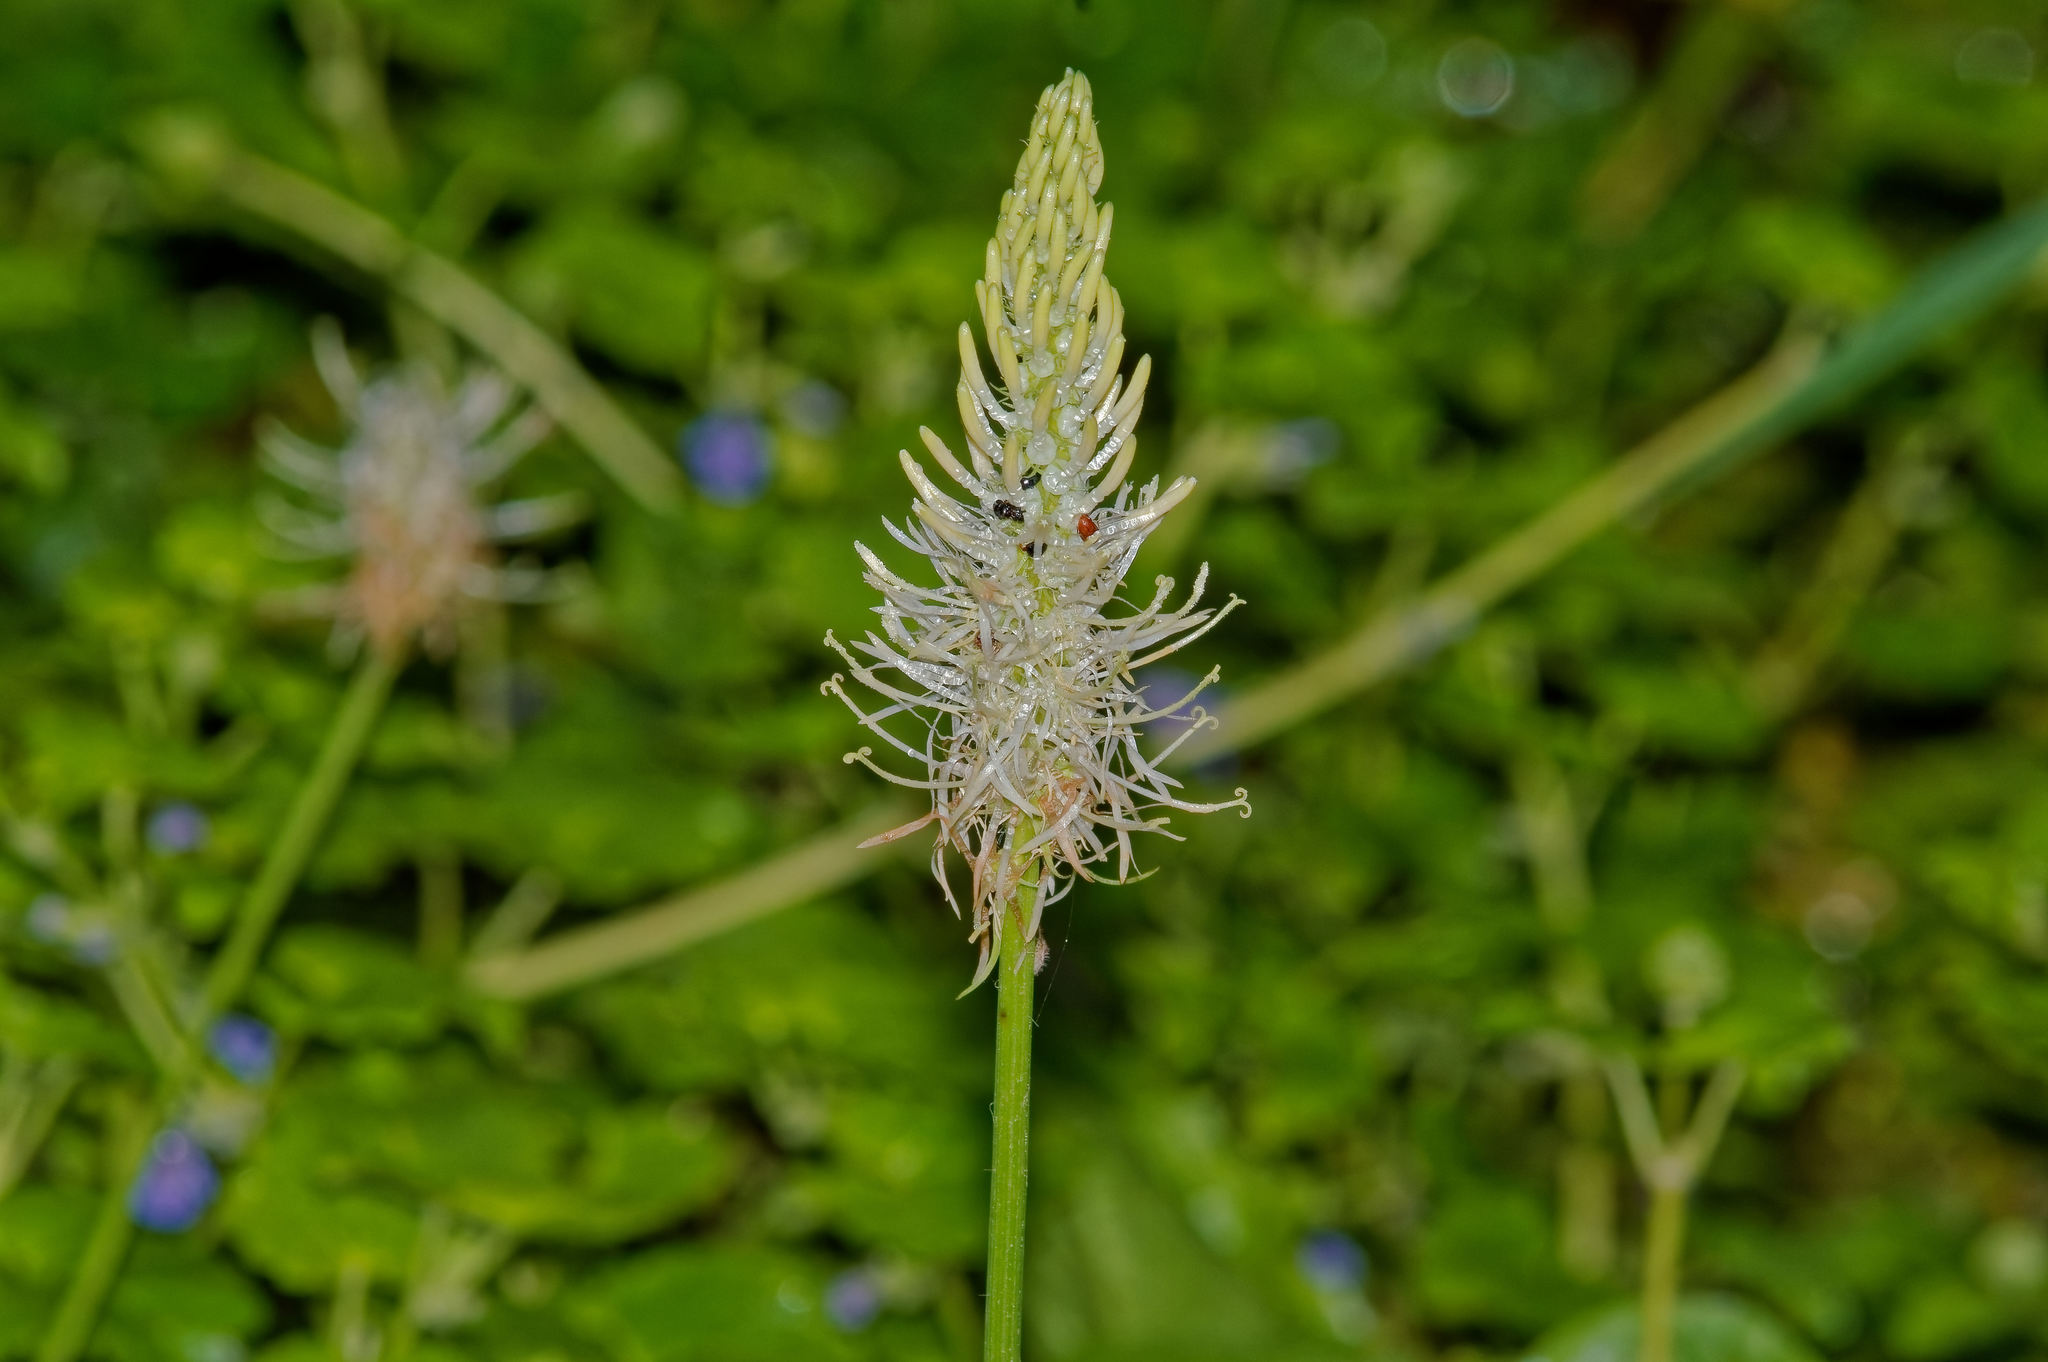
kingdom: Plantae
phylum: Tracheophyta
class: Magnoliopsida
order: Asterales
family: Campanulaceae
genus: Phyteuma
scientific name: Phyteuma spicatum
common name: Spiked rampion
